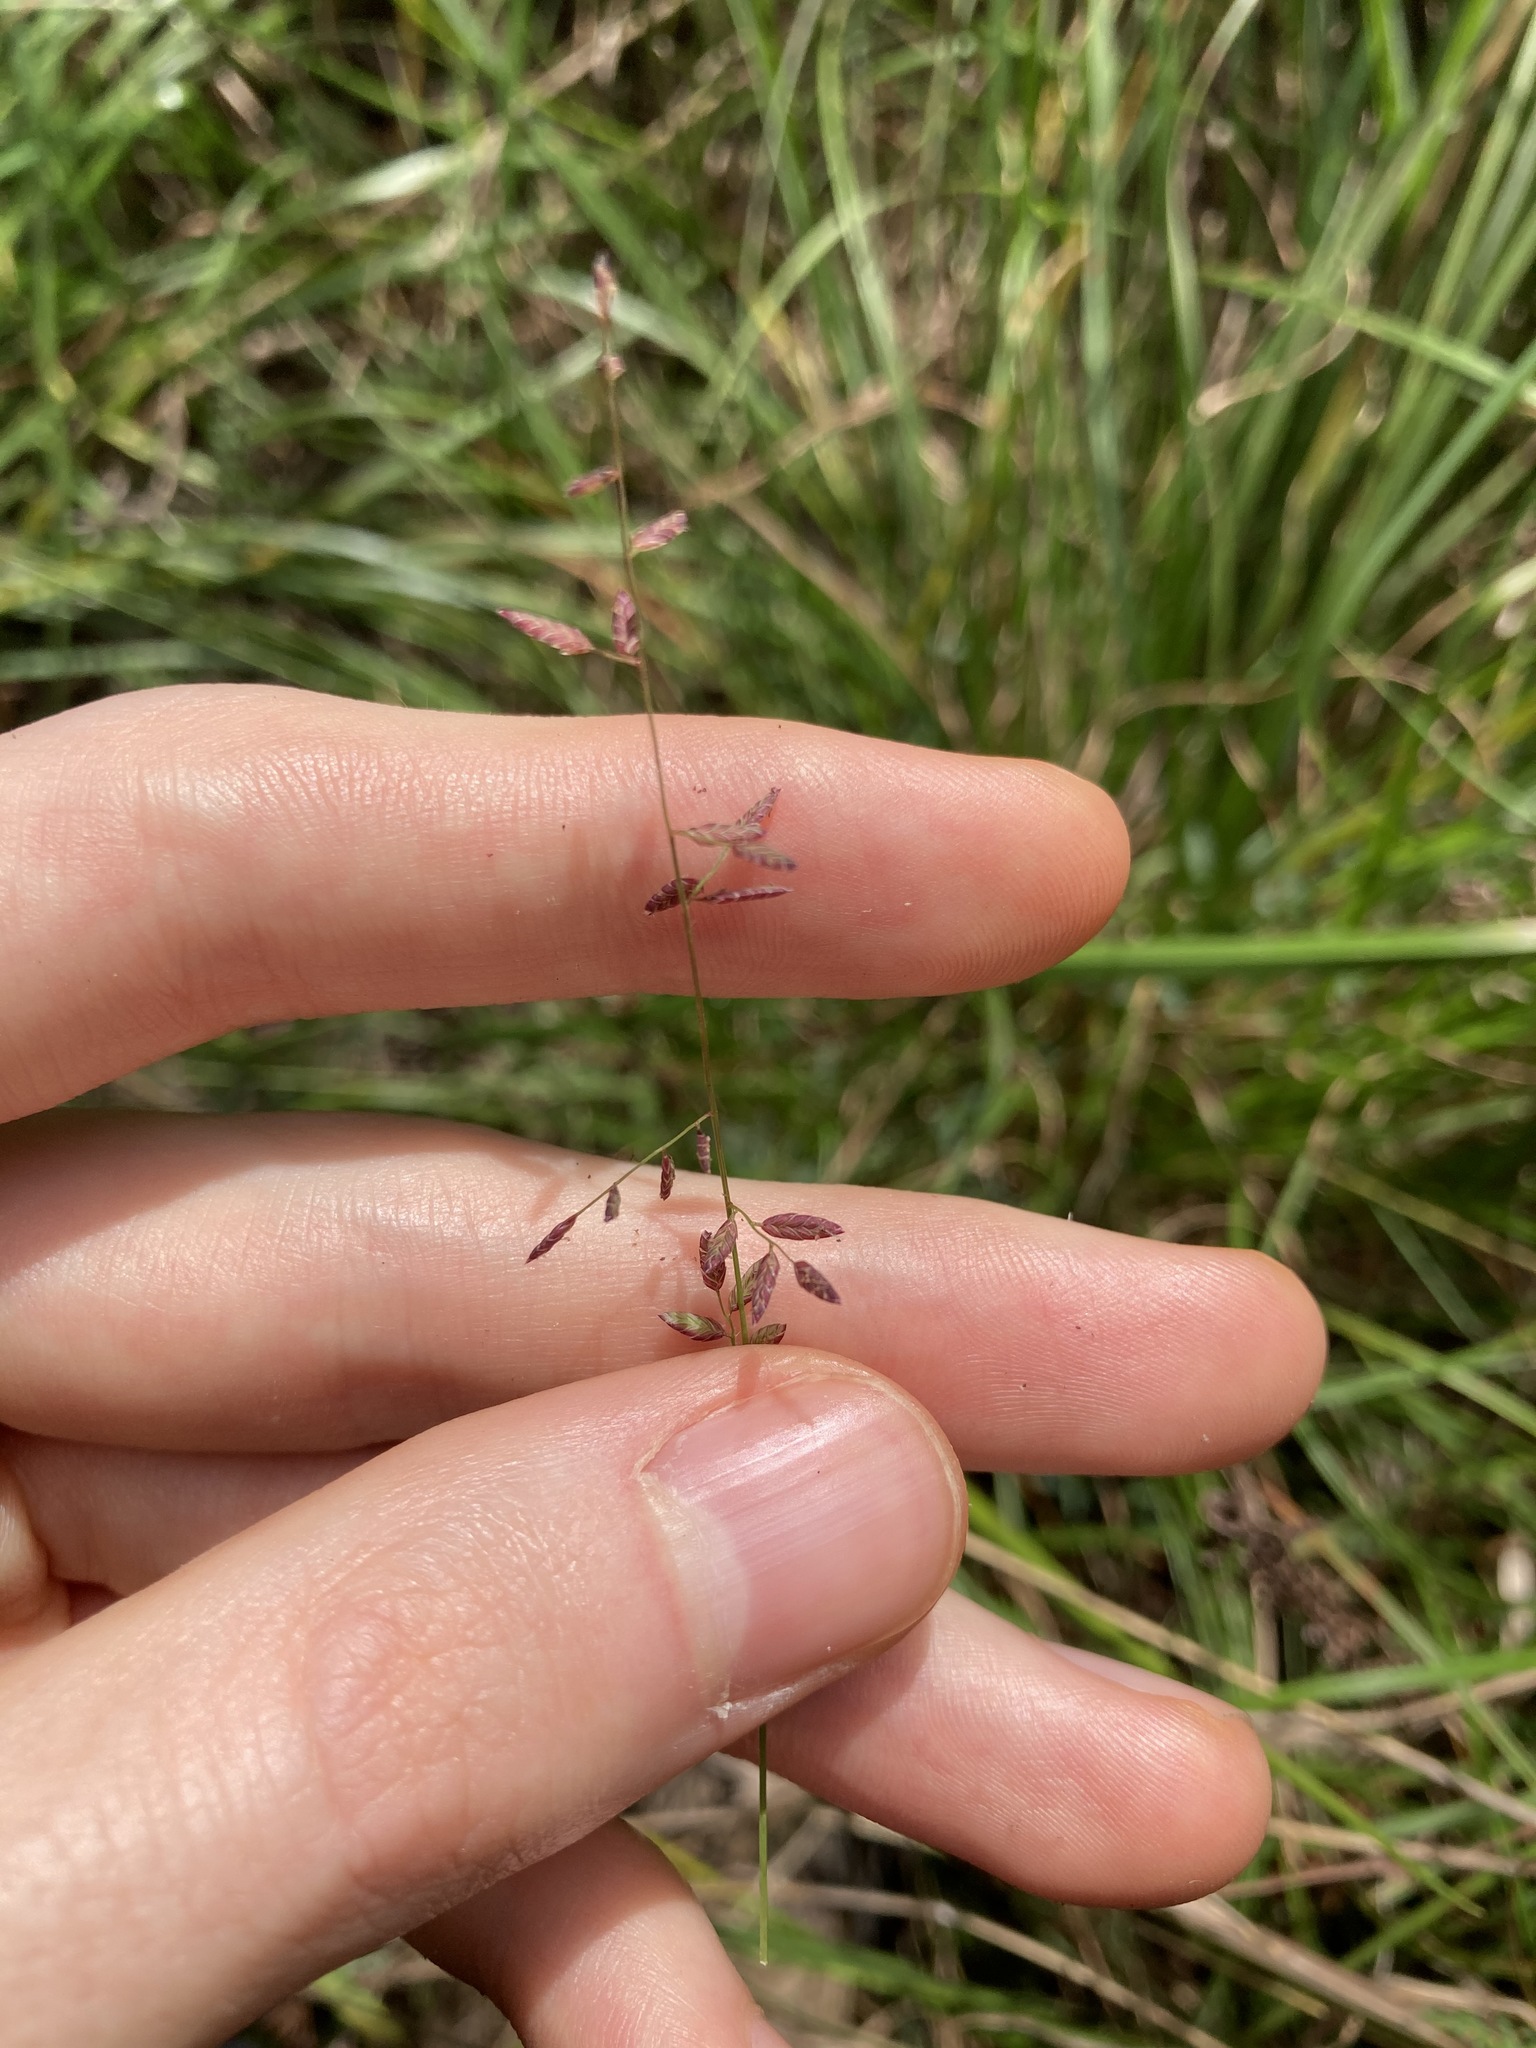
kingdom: Plantae
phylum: Tracheophyta
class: Liliopsida
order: Poales
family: Poaceae
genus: Eragrostis
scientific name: Eragrostis brownii
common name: Lovegrass
